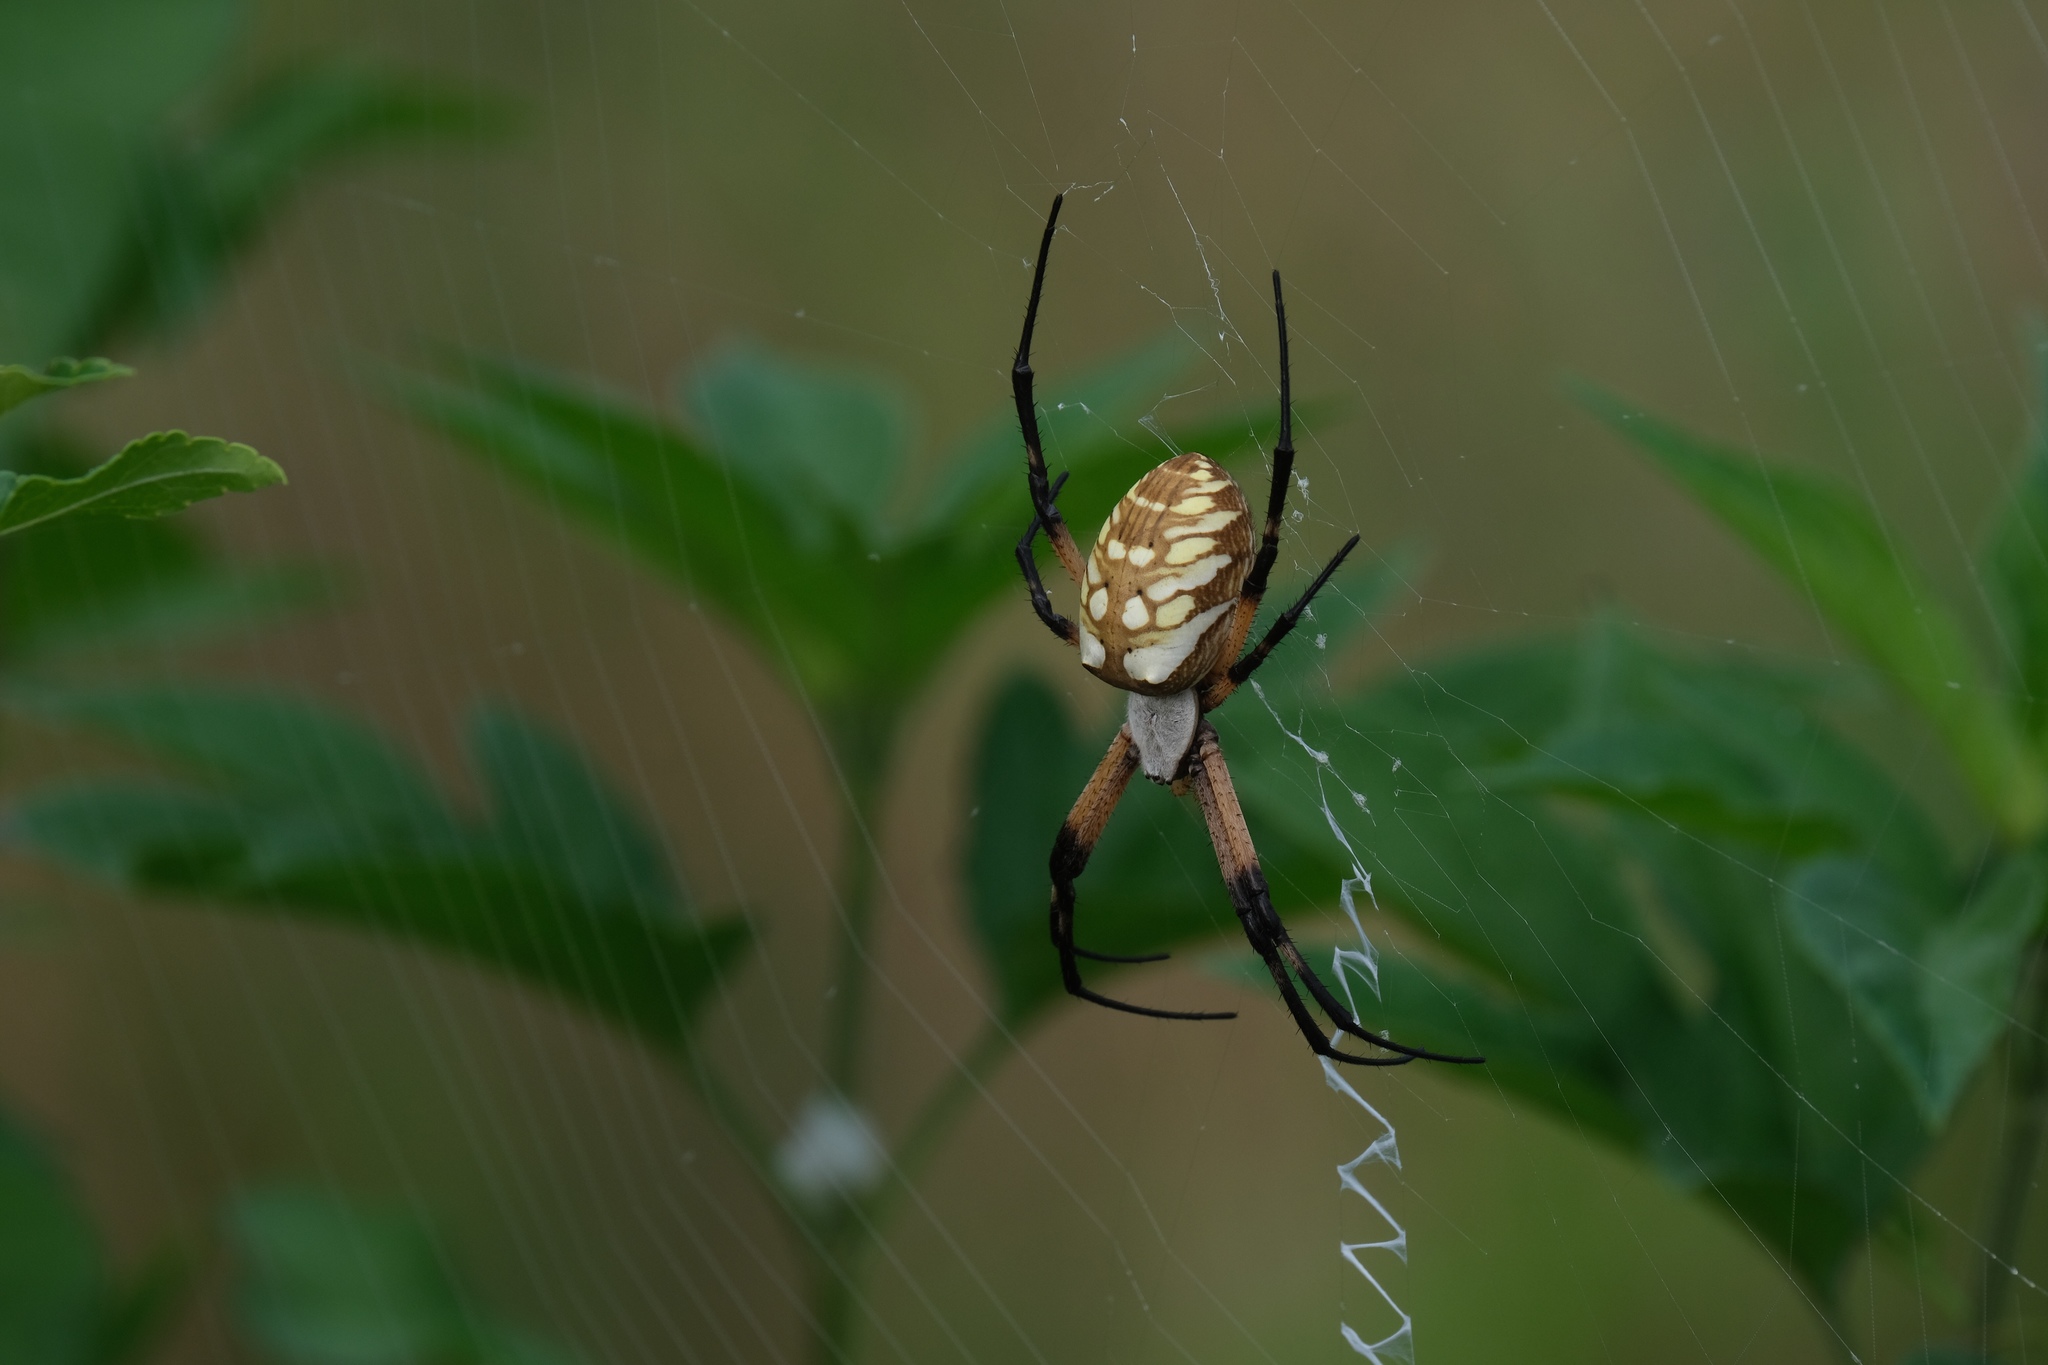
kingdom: Animalia
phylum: Arthropoda
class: Arachnida
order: Araneae
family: Araneidae
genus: Argiope
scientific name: Argiope aurantia
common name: Orb weavers
